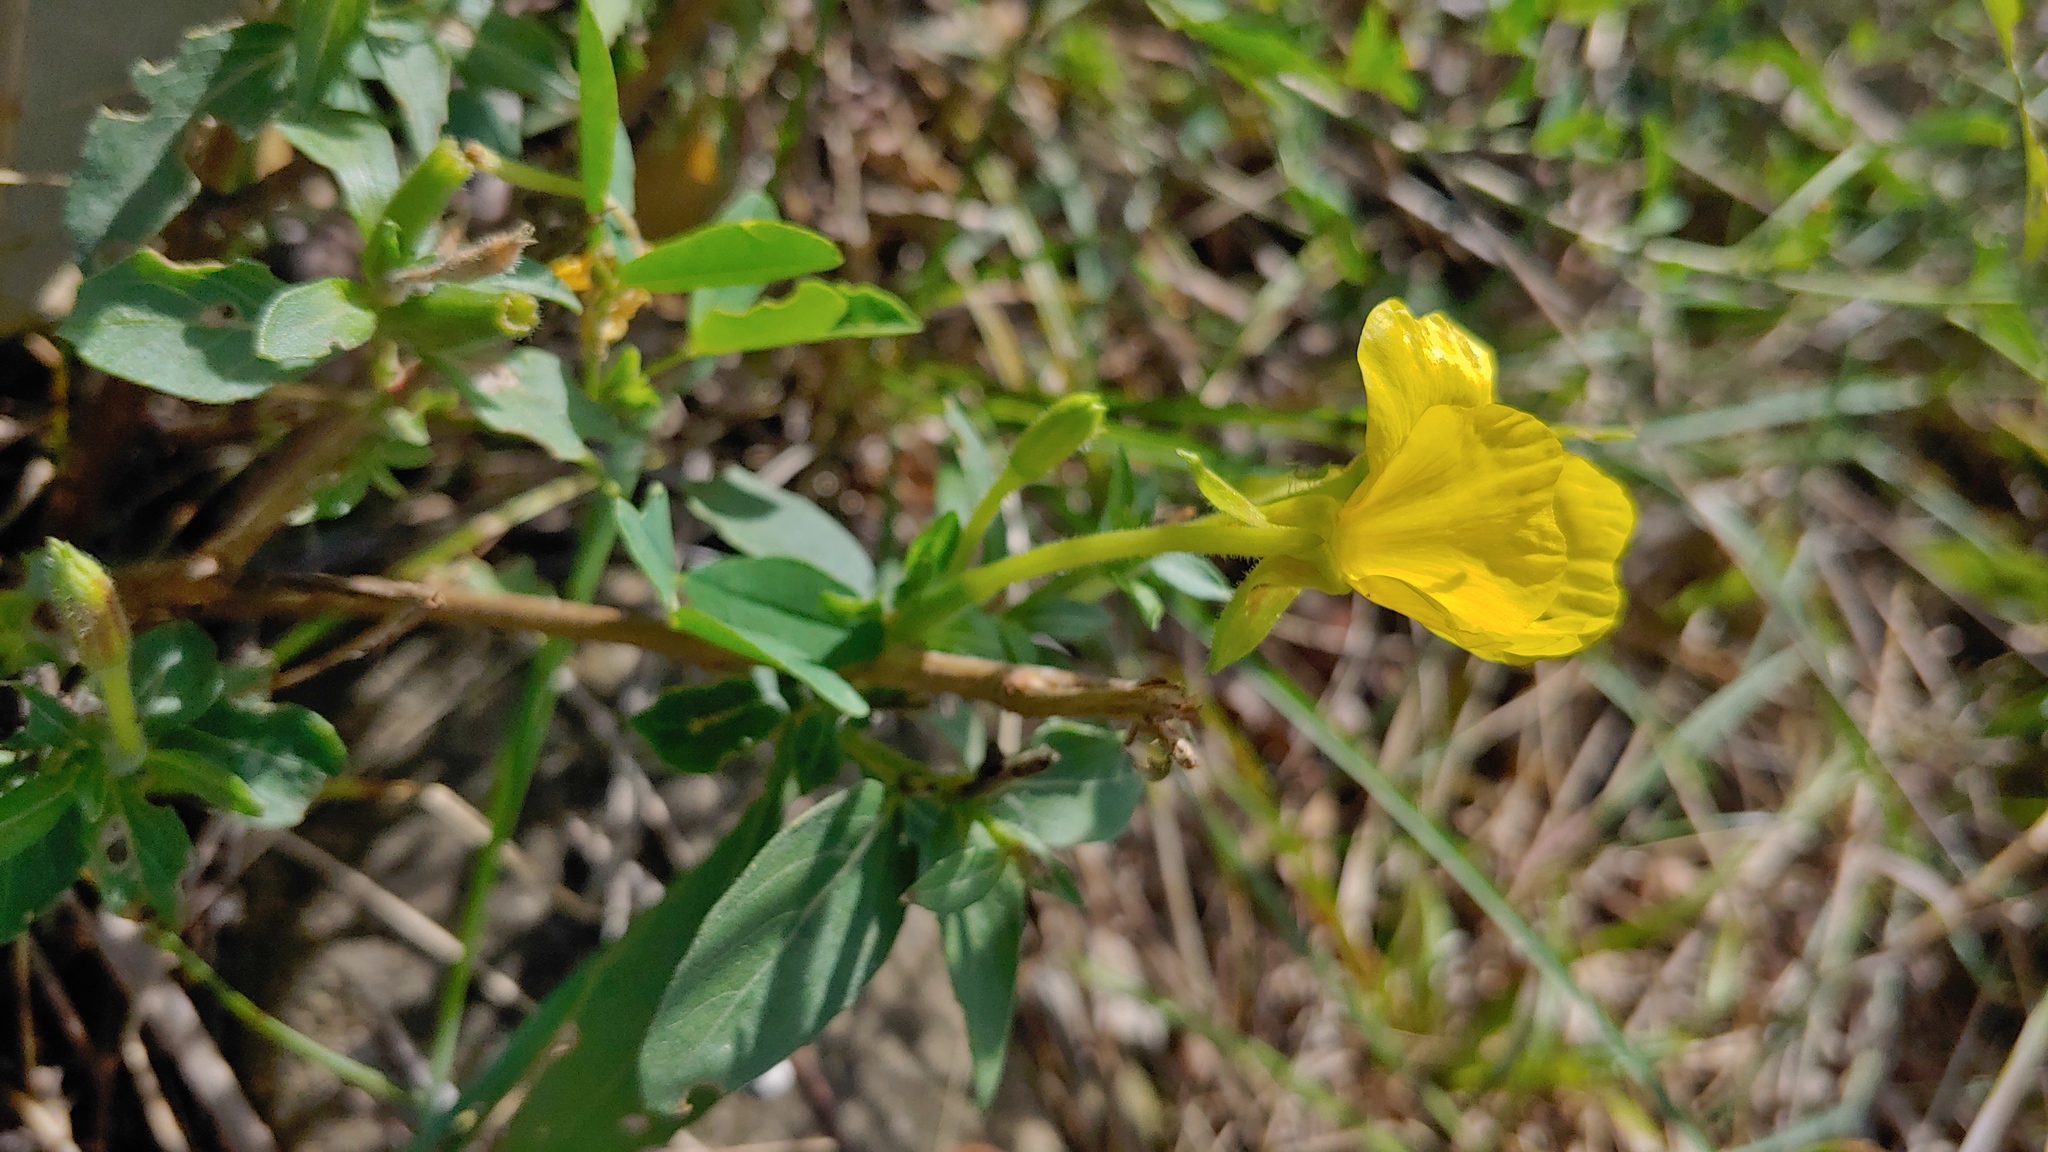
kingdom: Plantae
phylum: Tracheophyta
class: Magnoliopsida
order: Myrtales
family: Onagraceae
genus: Oenothera
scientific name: Oenothera parviflora
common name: Least evening-primrose
